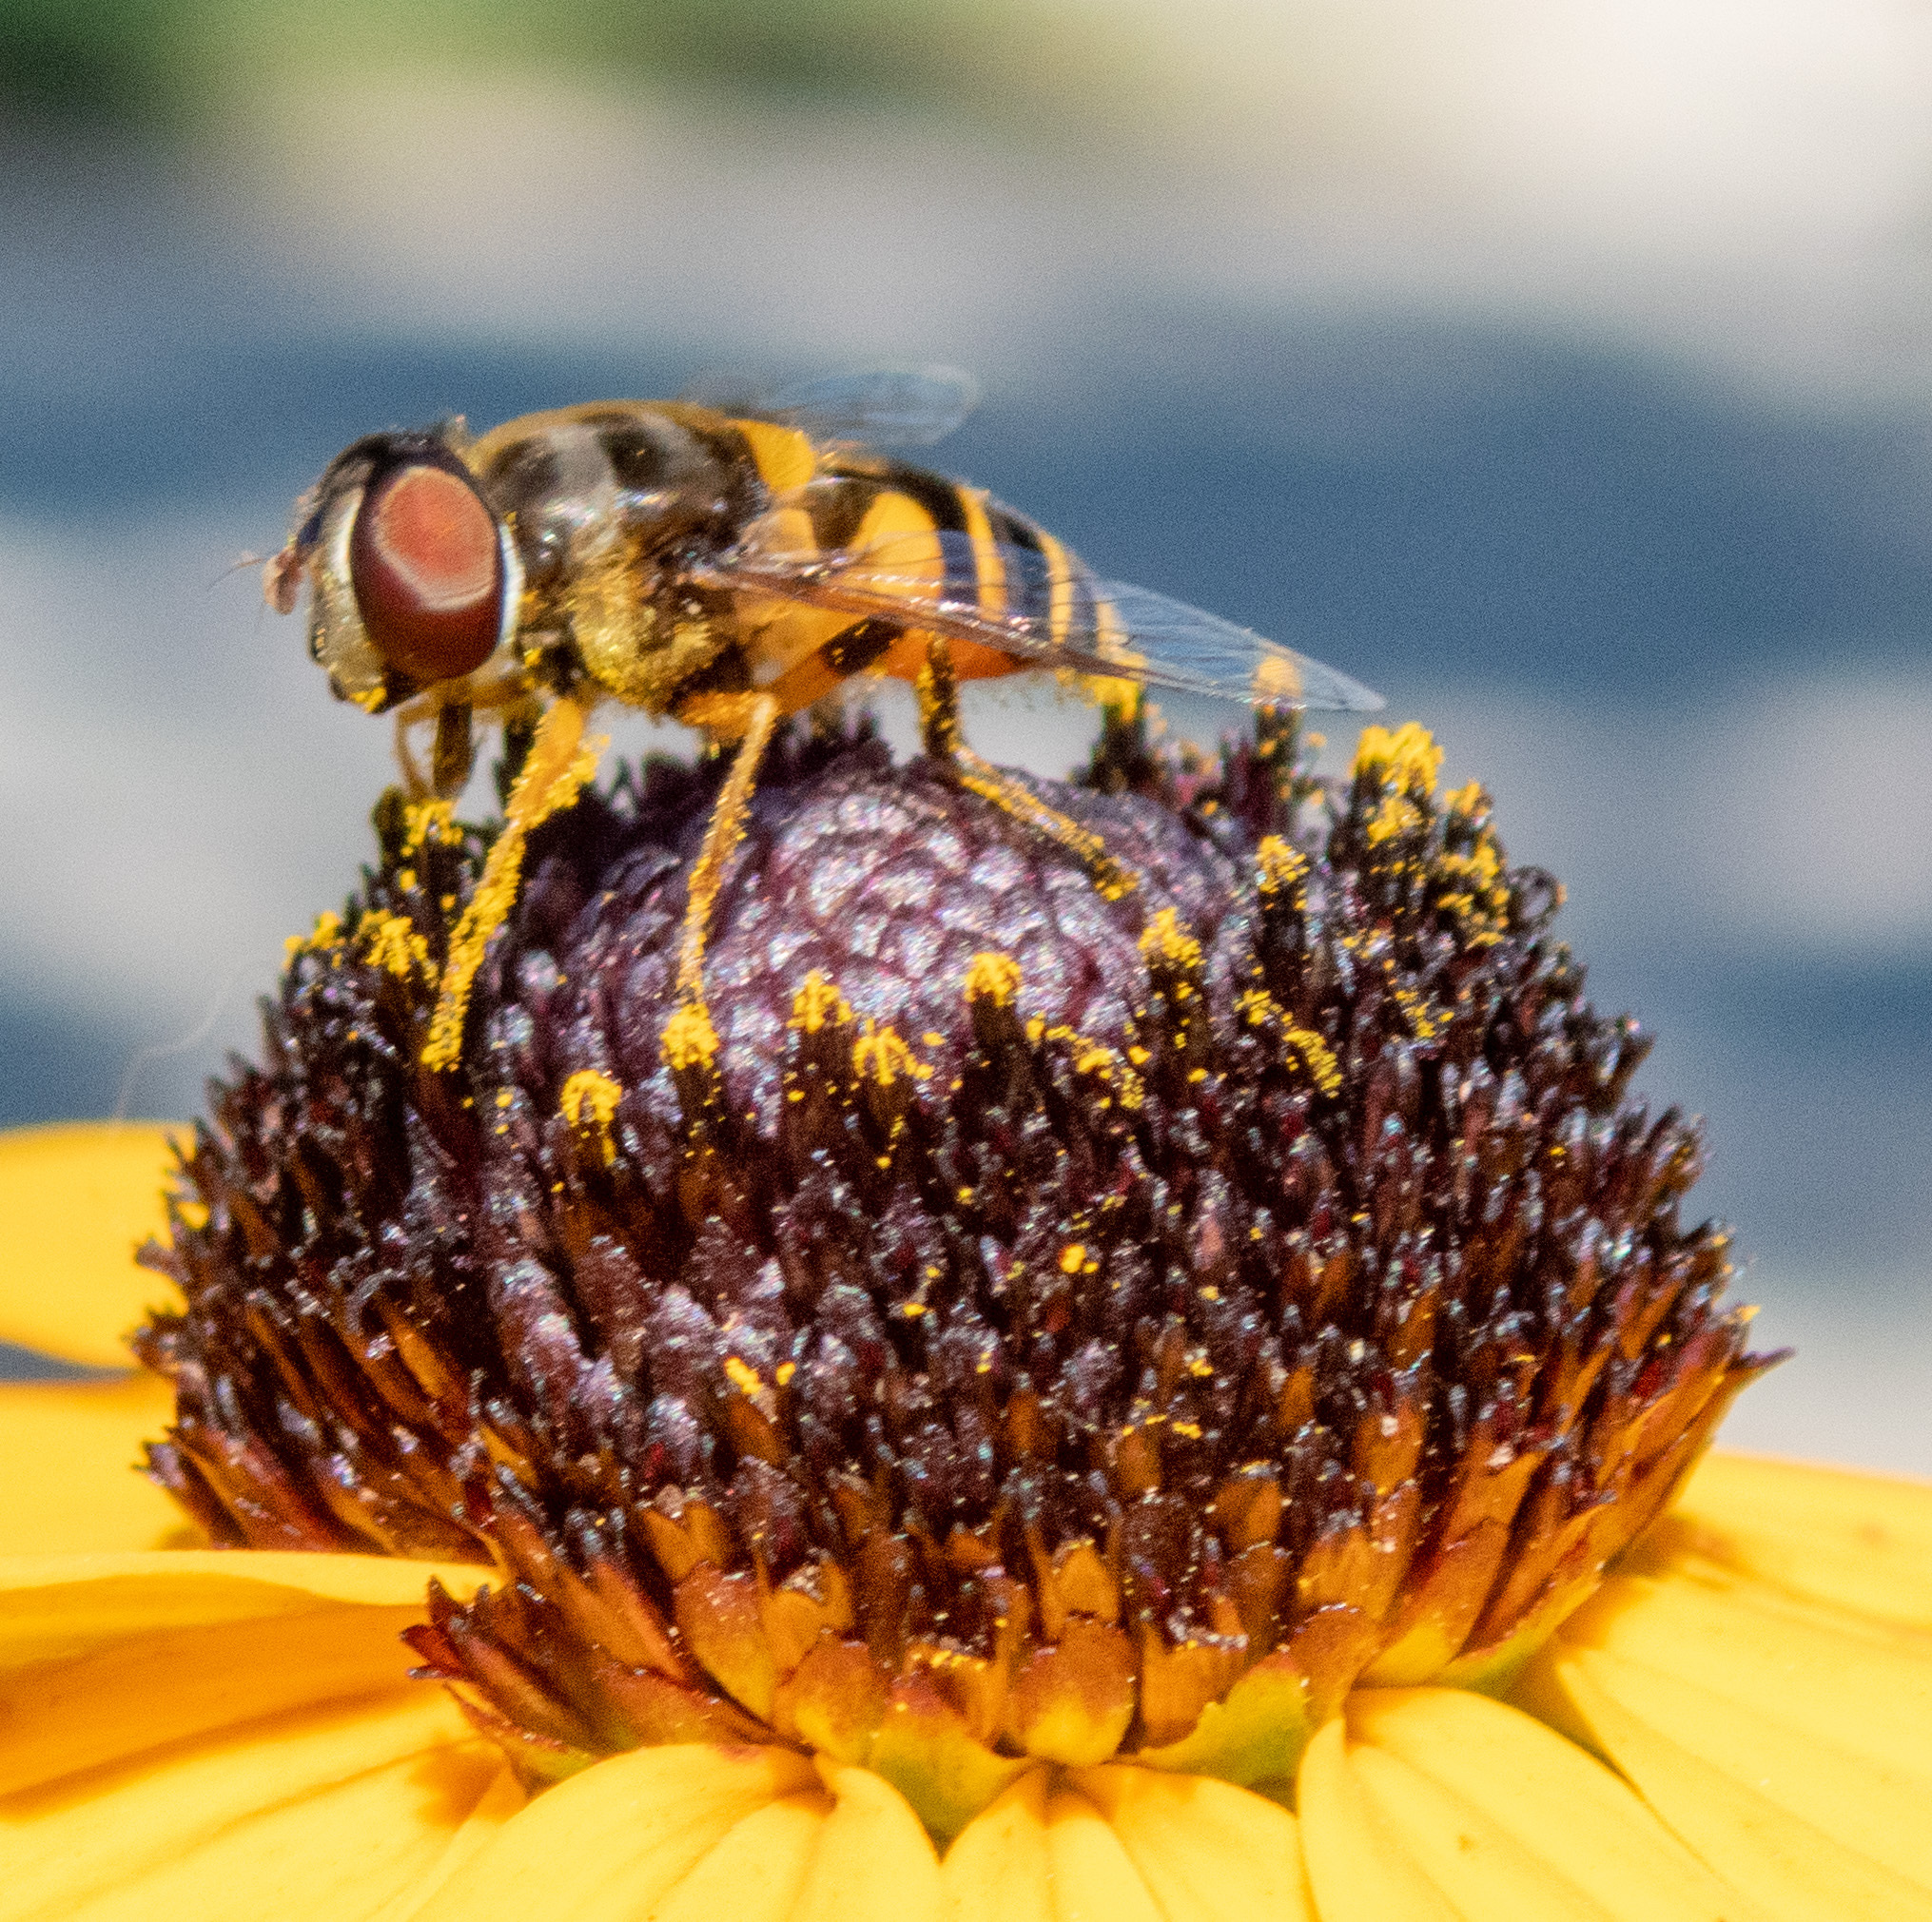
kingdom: Animalia
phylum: Arthropoda
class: Insecta
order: Diptera
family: Syrphidae
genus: Eristalis
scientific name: Eristalis transversa
